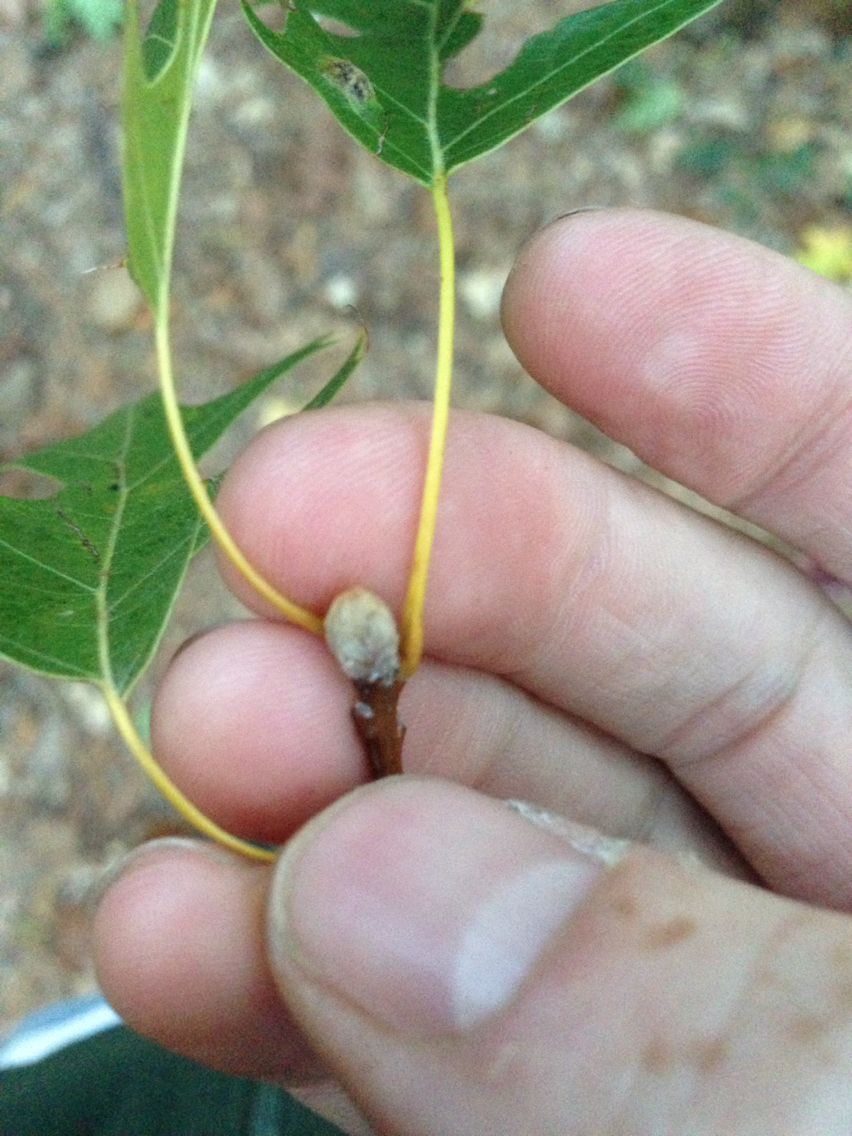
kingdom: Plantae
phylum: Tracheophyta
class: Magnoliopsida
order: Fagales
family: Fagaceae
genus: Quercus
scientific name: Quercus velutina
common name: Black oak
